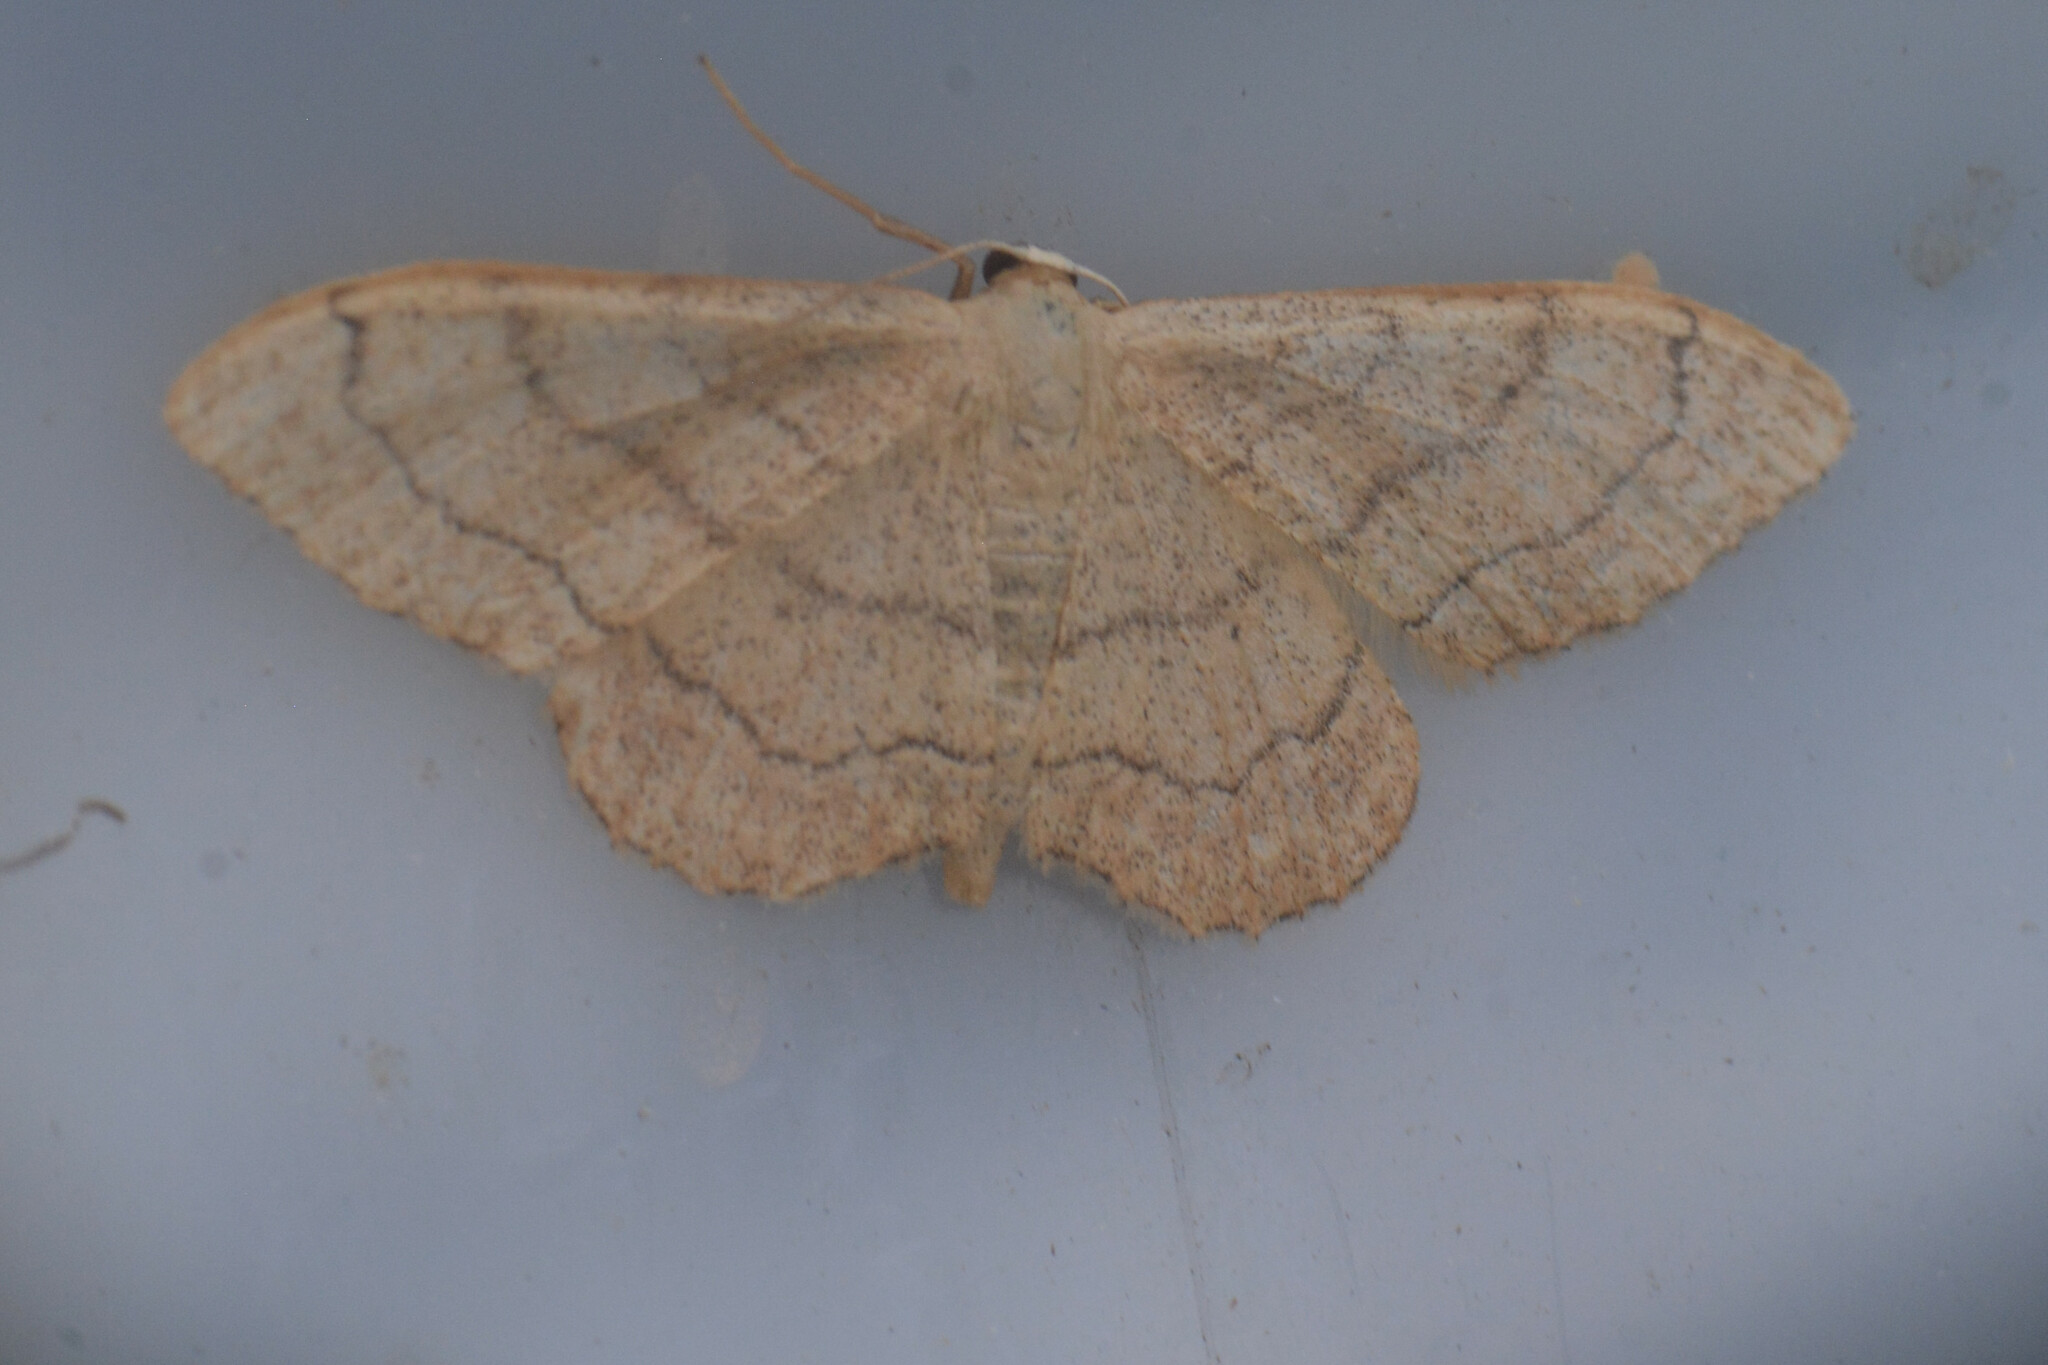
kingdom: Animalia
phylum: Arthropoda
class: Insecta
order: Lepidoptera
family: Geometridae
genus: Idaea
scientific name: Idaea aversata
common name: Riband wave
